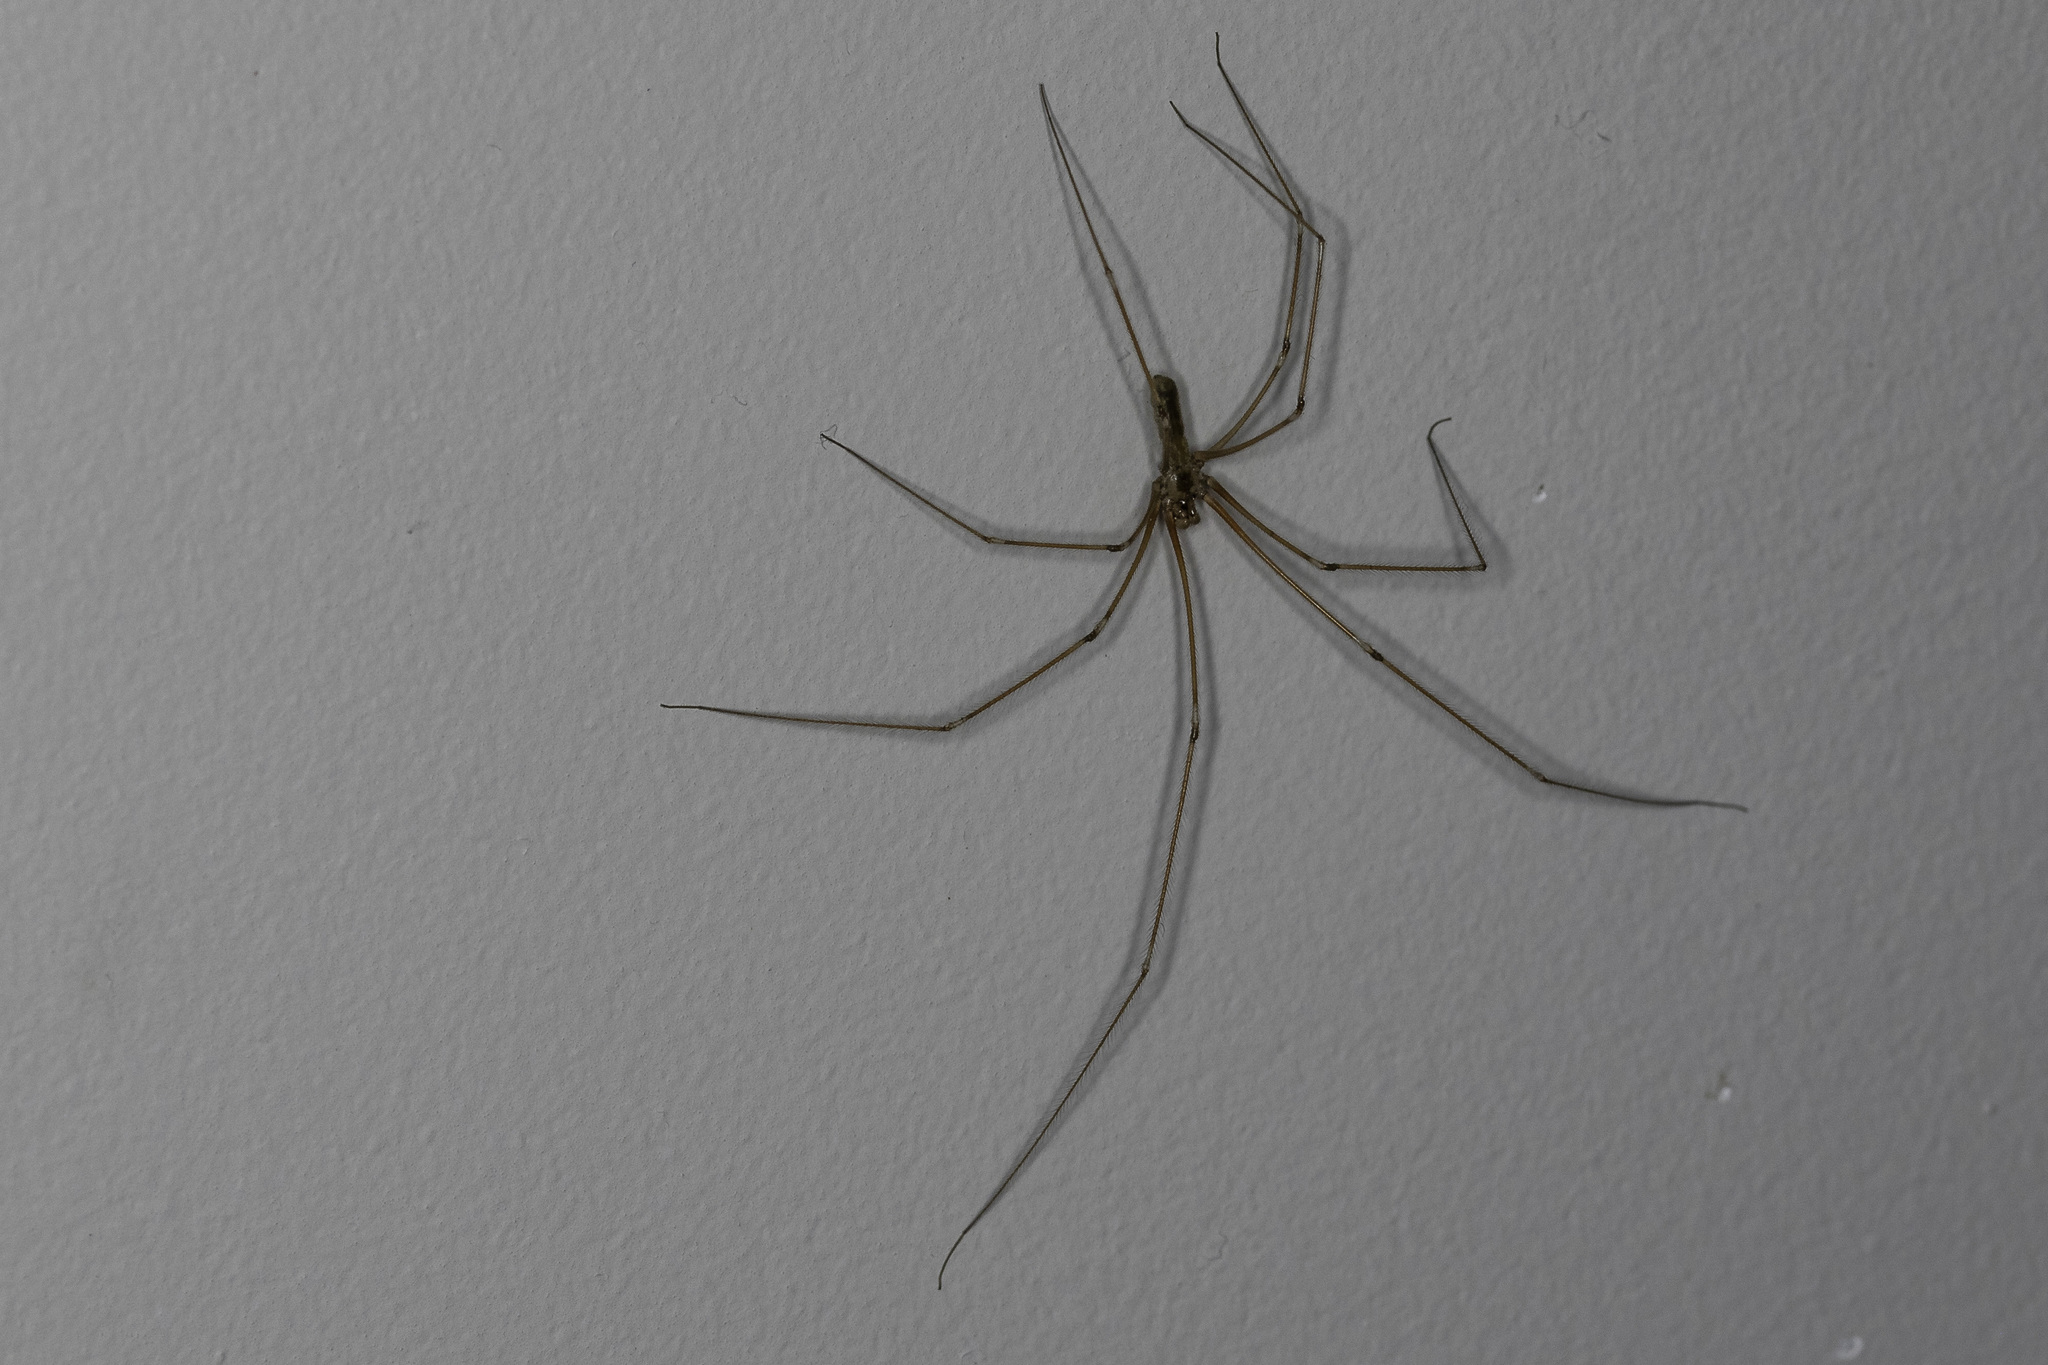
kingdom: Animalia
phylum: Arthropoda
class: Arachnida
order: Araneae
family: Pholcidae
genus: Pholcus
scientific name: Pholcus phalangioides
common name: Longbodied cellar spider
